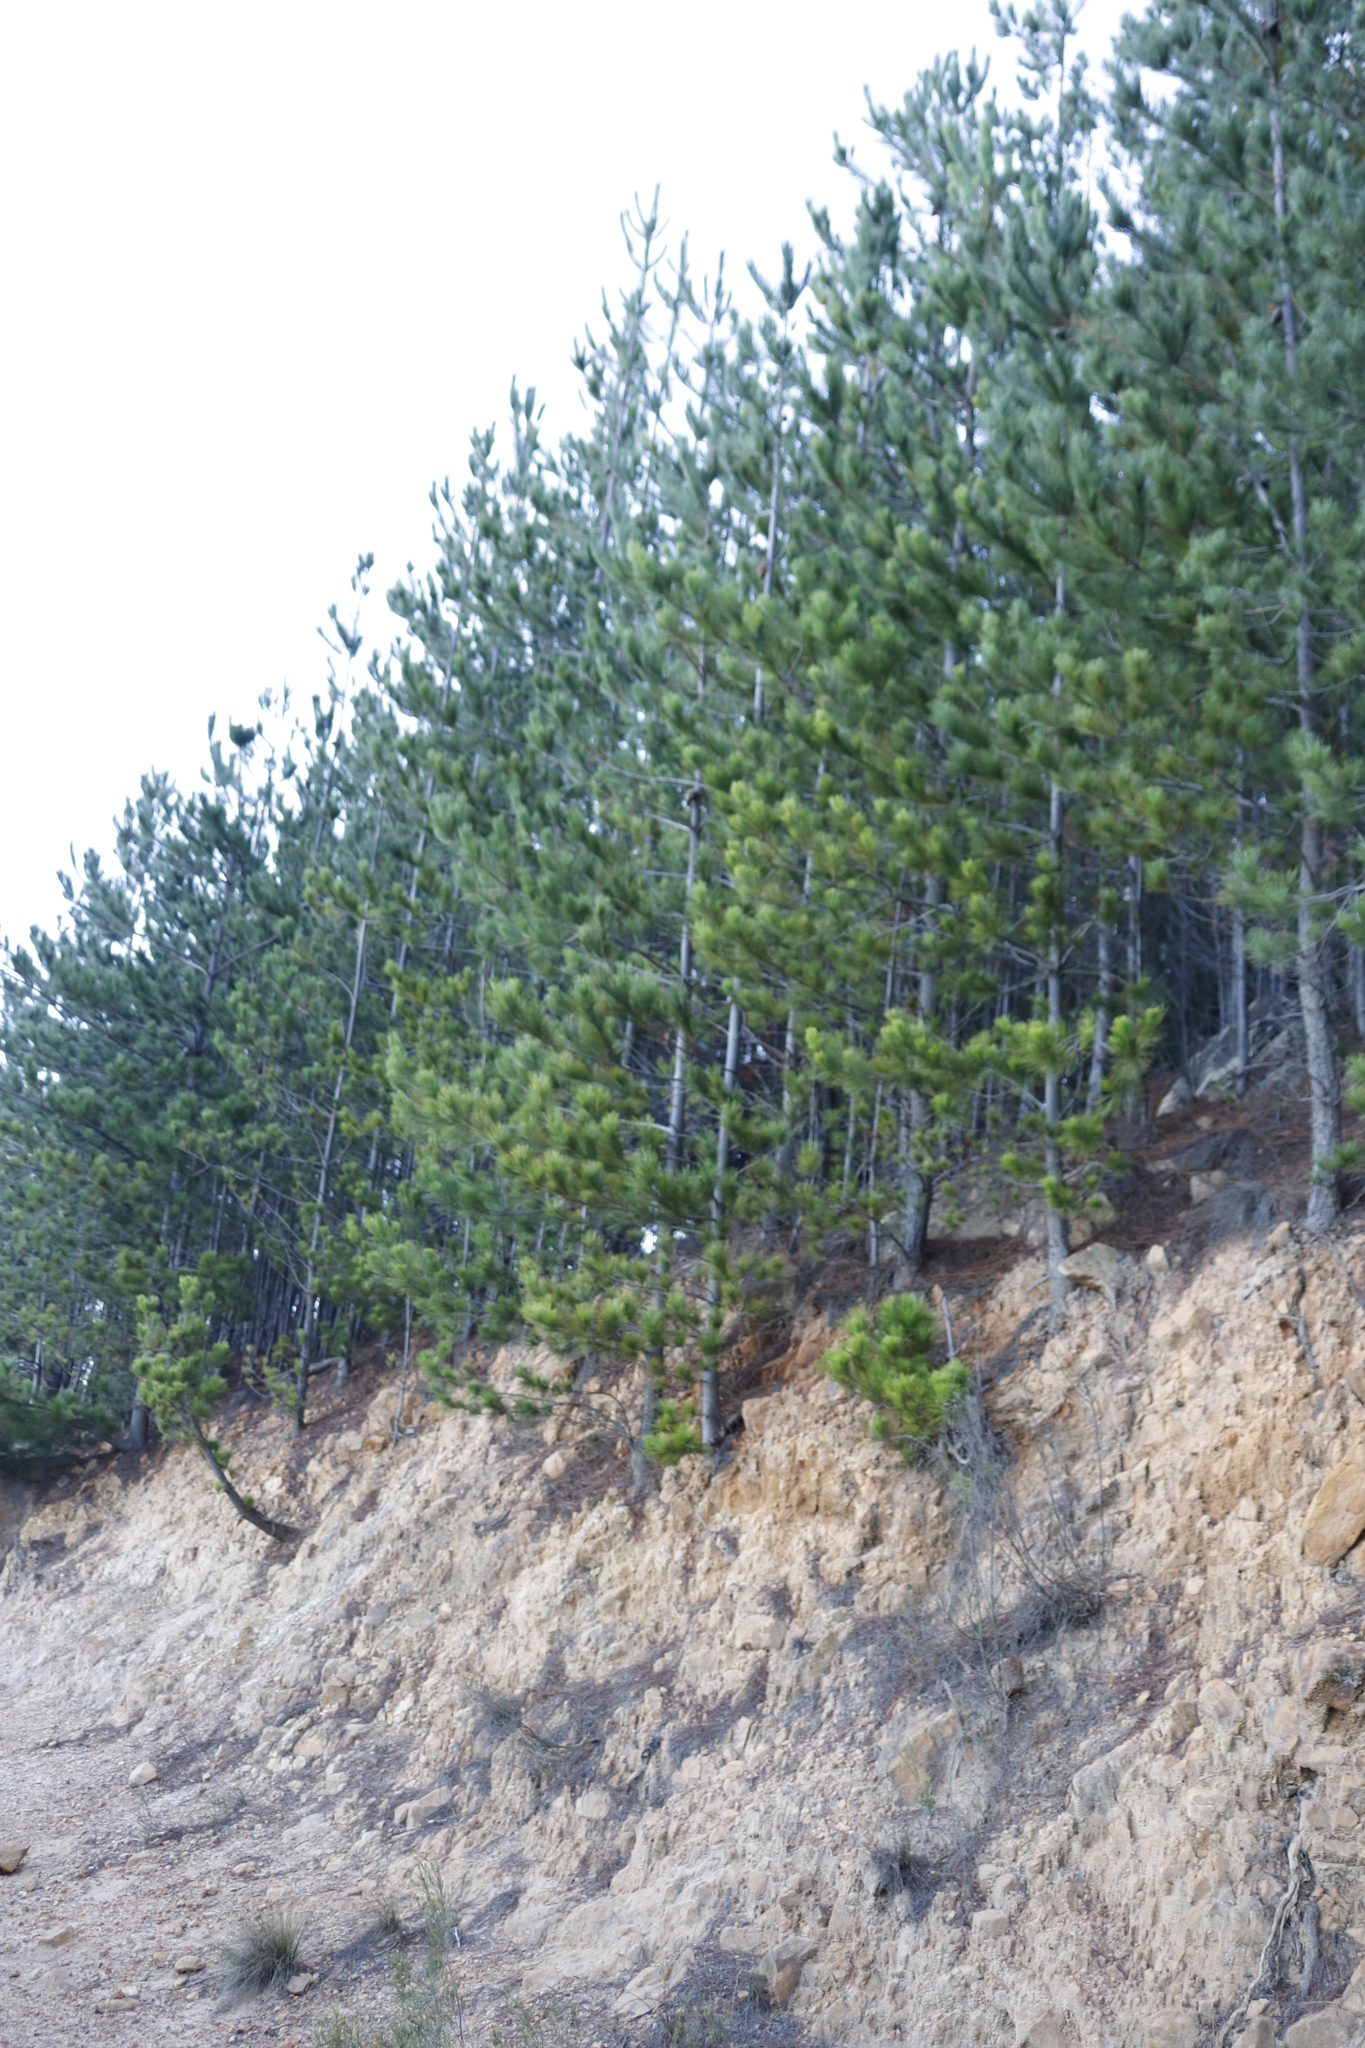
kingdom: Plantae
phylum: Tracheophyta
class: Pinopsida
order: Pinales
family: Pinaceae
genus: Pinus
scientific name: Pinus radiata
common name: Monterey pine
